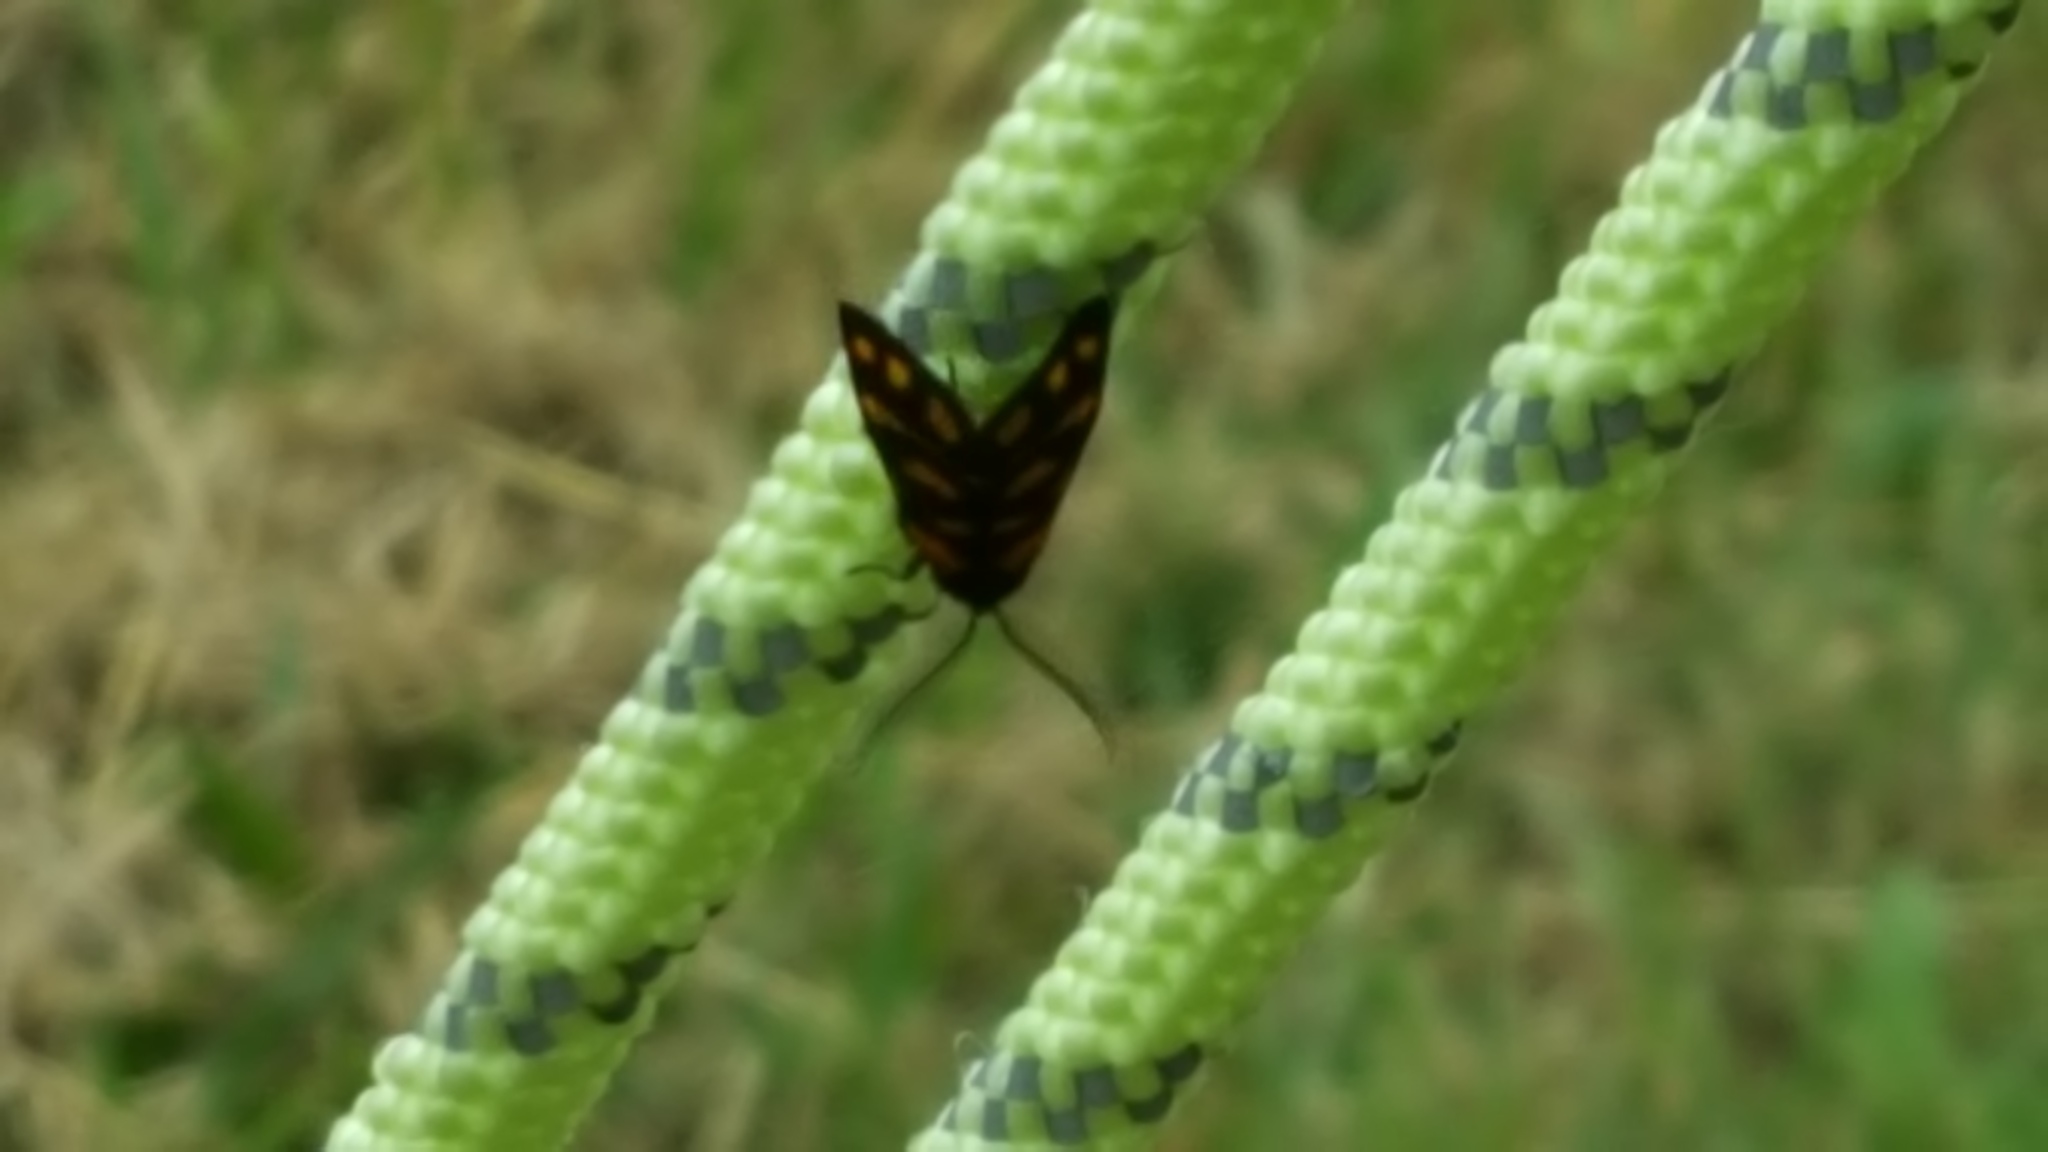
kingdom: Animalia
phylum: Arthropoda
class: Insecta
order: Lepidoptera
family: Erebidae
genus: Asura
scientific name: Asura lydia
